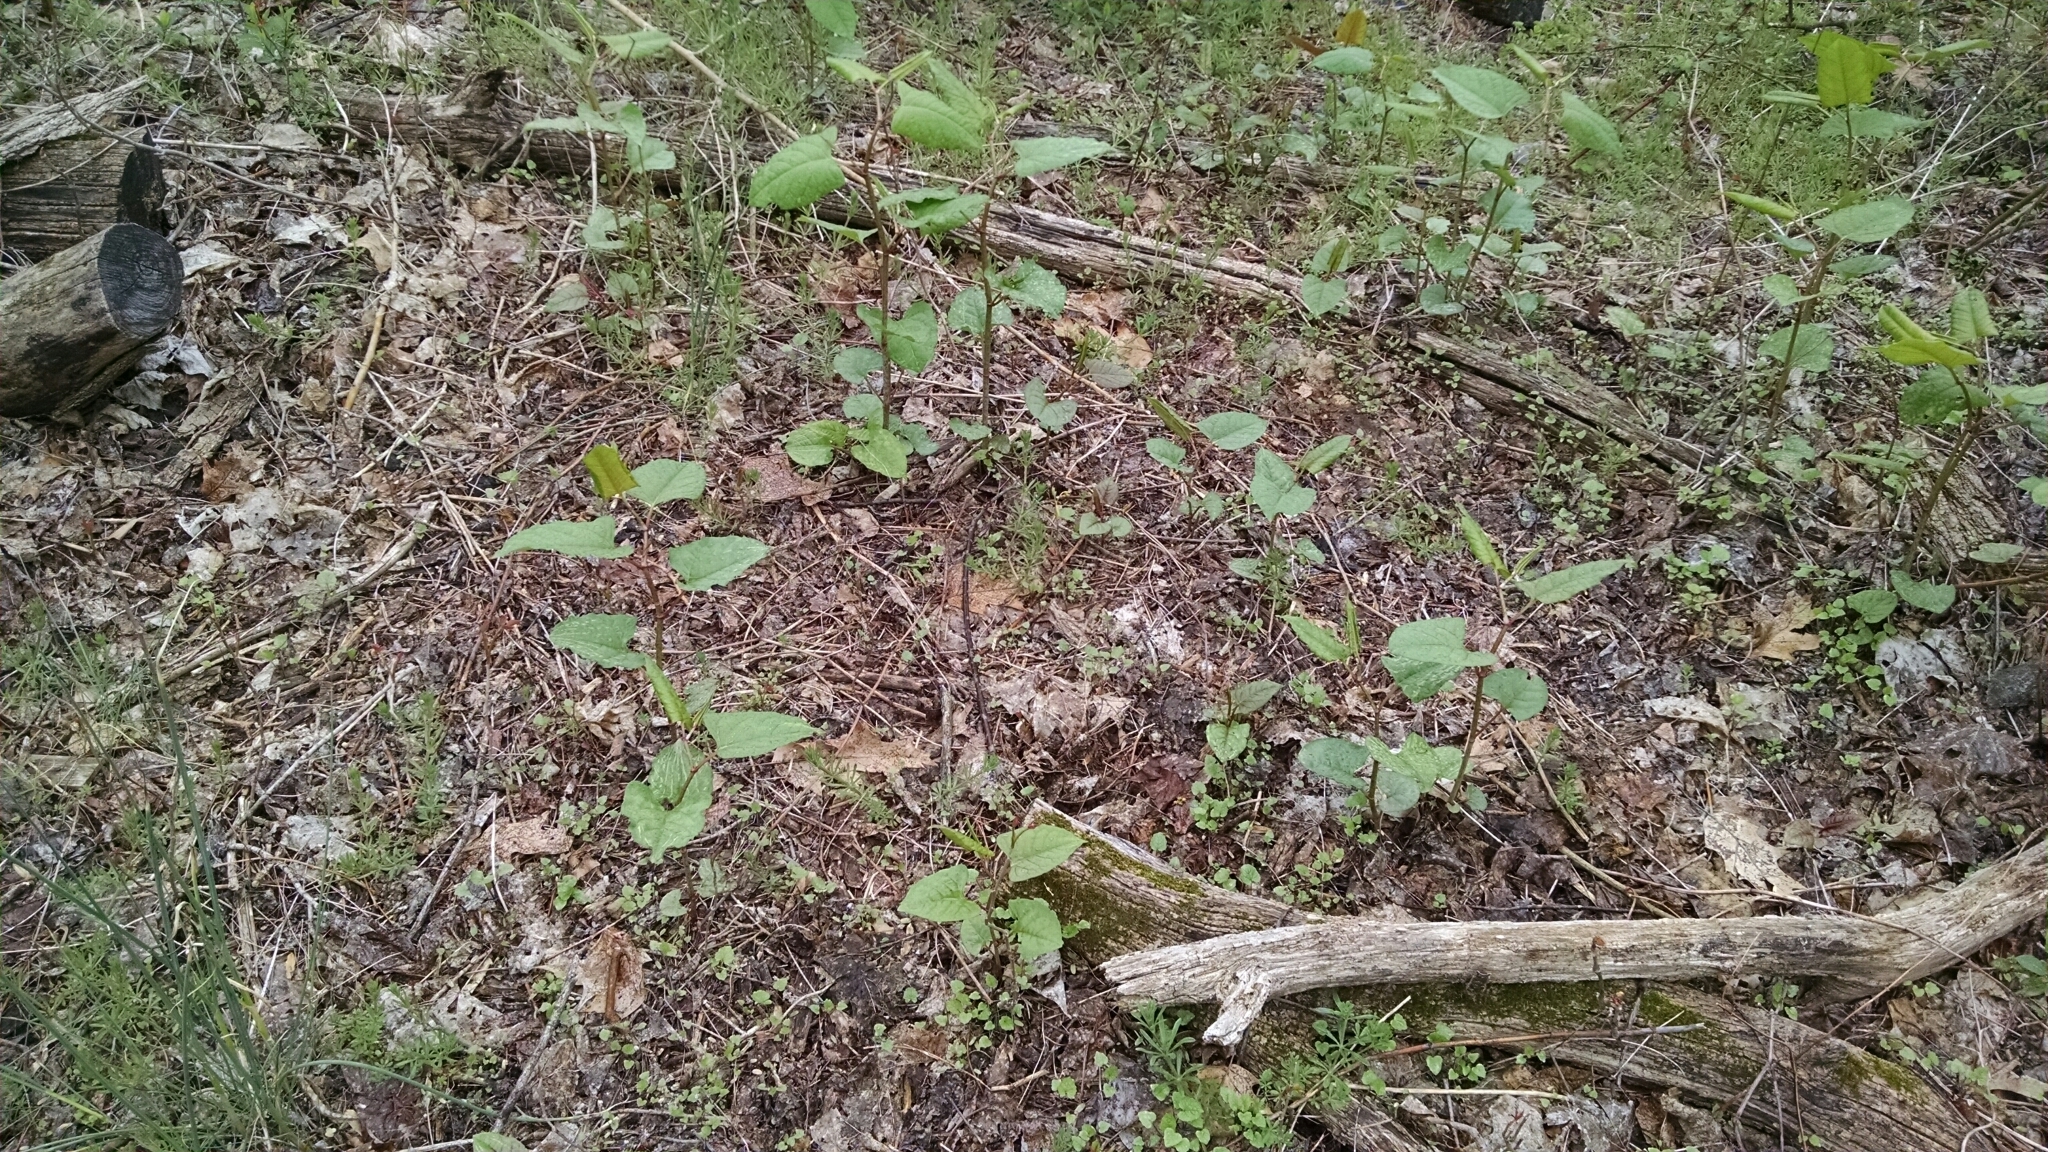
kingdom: Plantae
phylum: Tracheophyta
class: Magnoliopsida
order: Caryophyllales
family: Polygonaceae
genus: Reynoutria
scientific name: Reynoutria japonica
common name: Japanese knotweed
